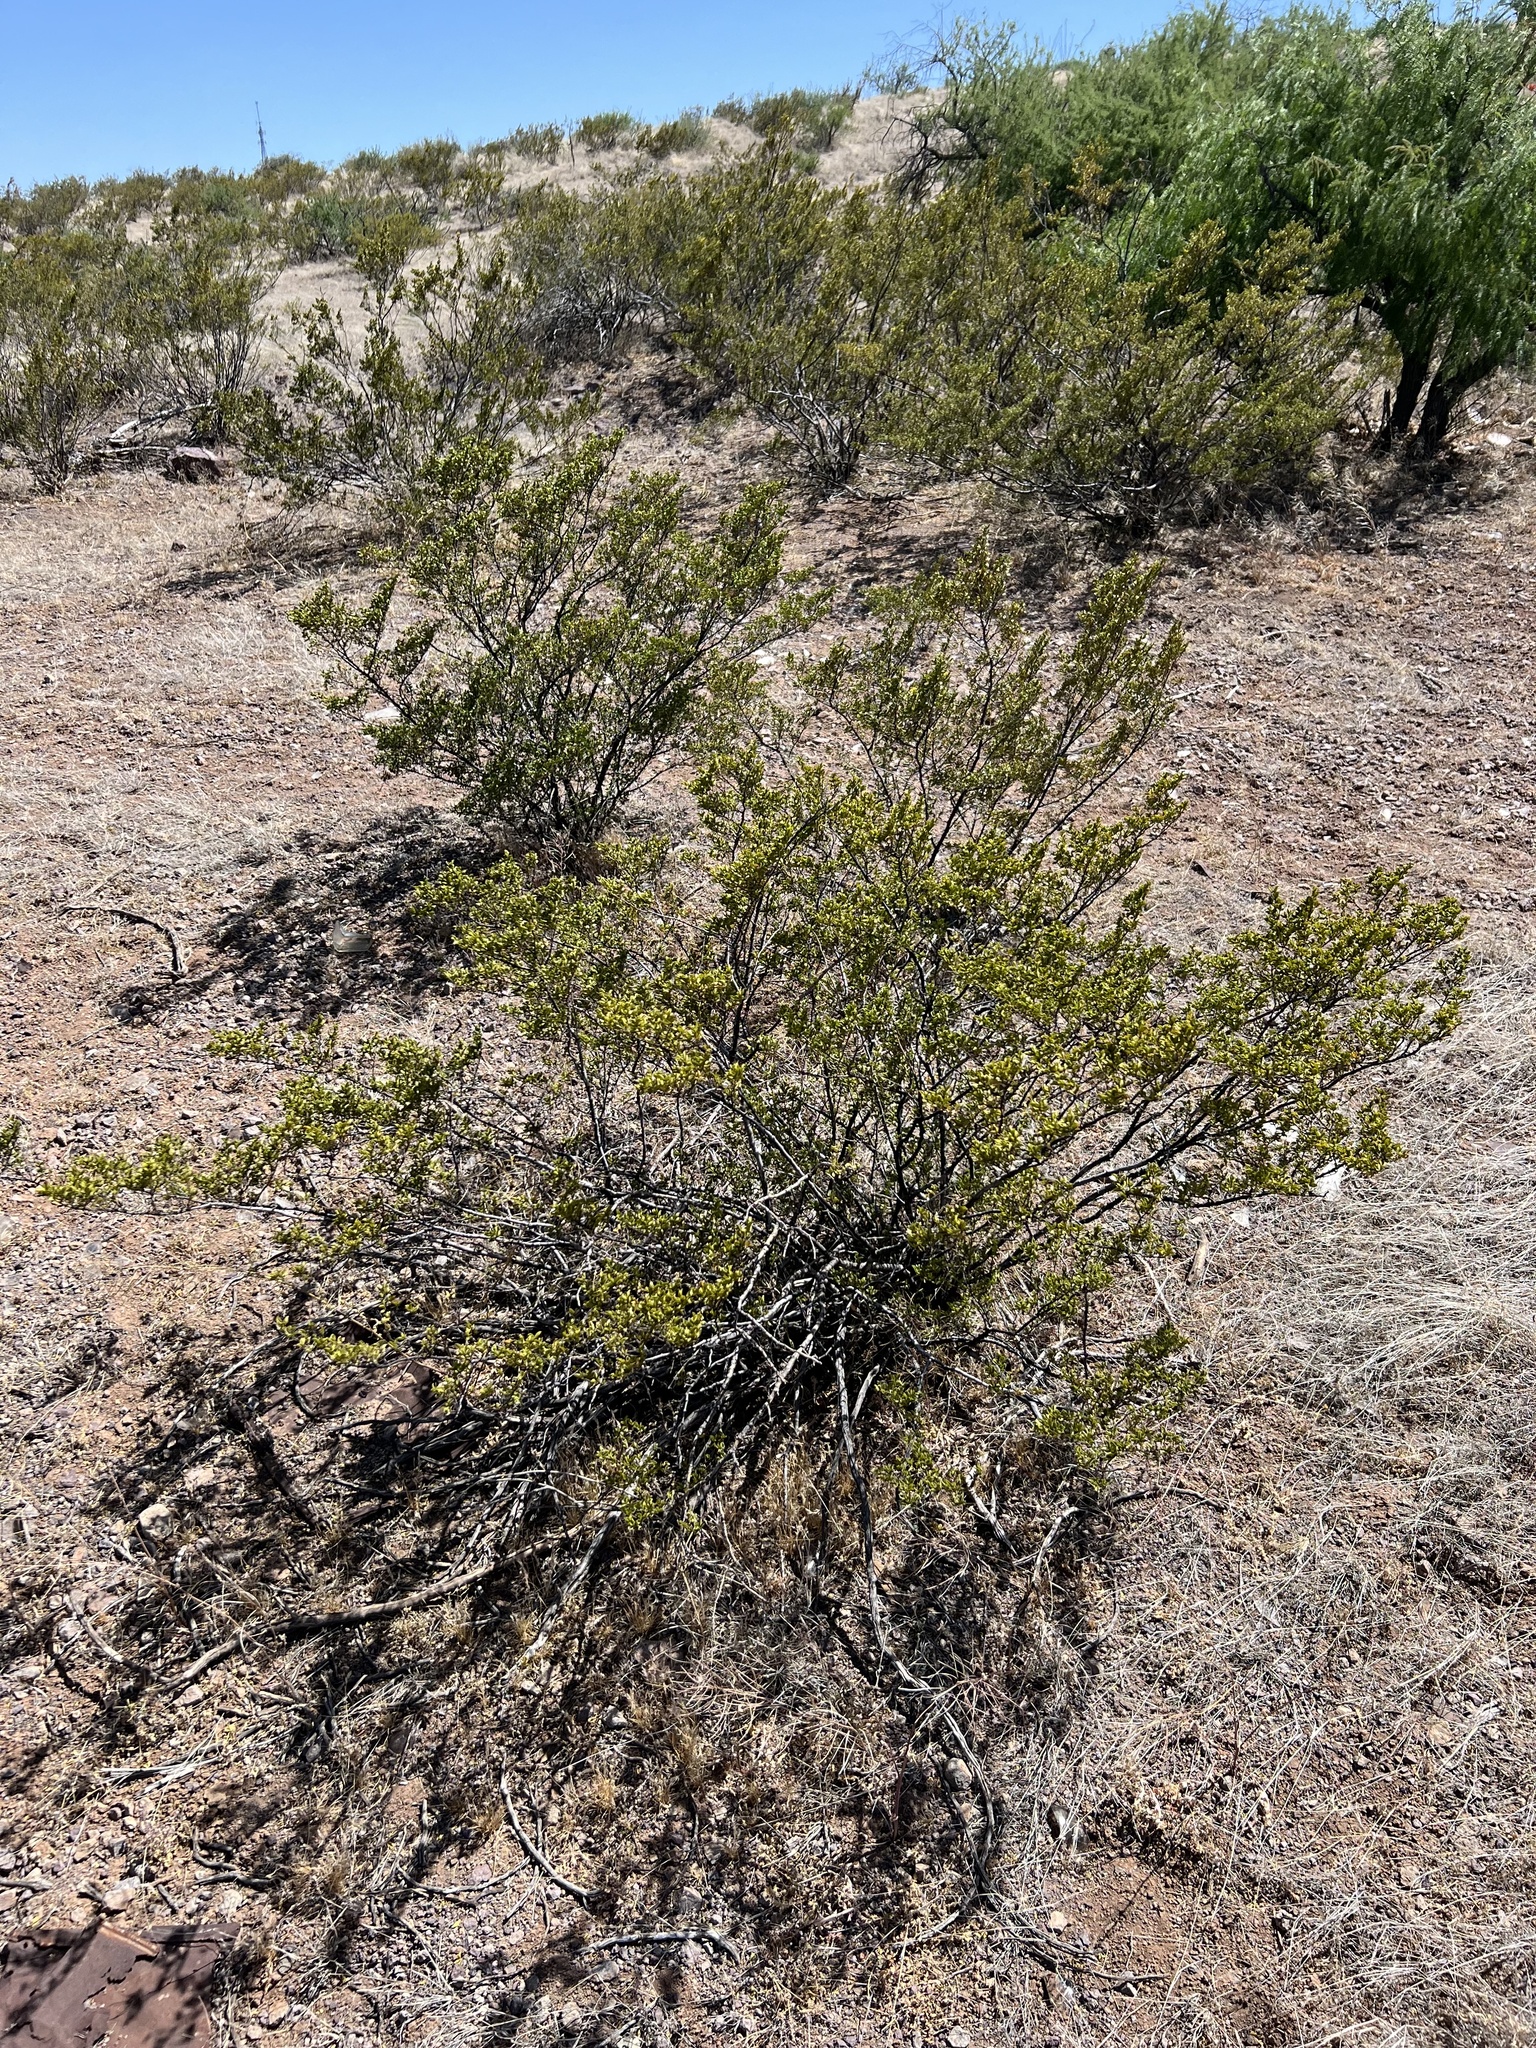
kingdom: Plantae
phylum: Tracheophyta
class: Magnoliopsida
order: Zygophyllales
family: Zygophyllaceae
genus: Larrea
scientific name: Larrea tridentata
